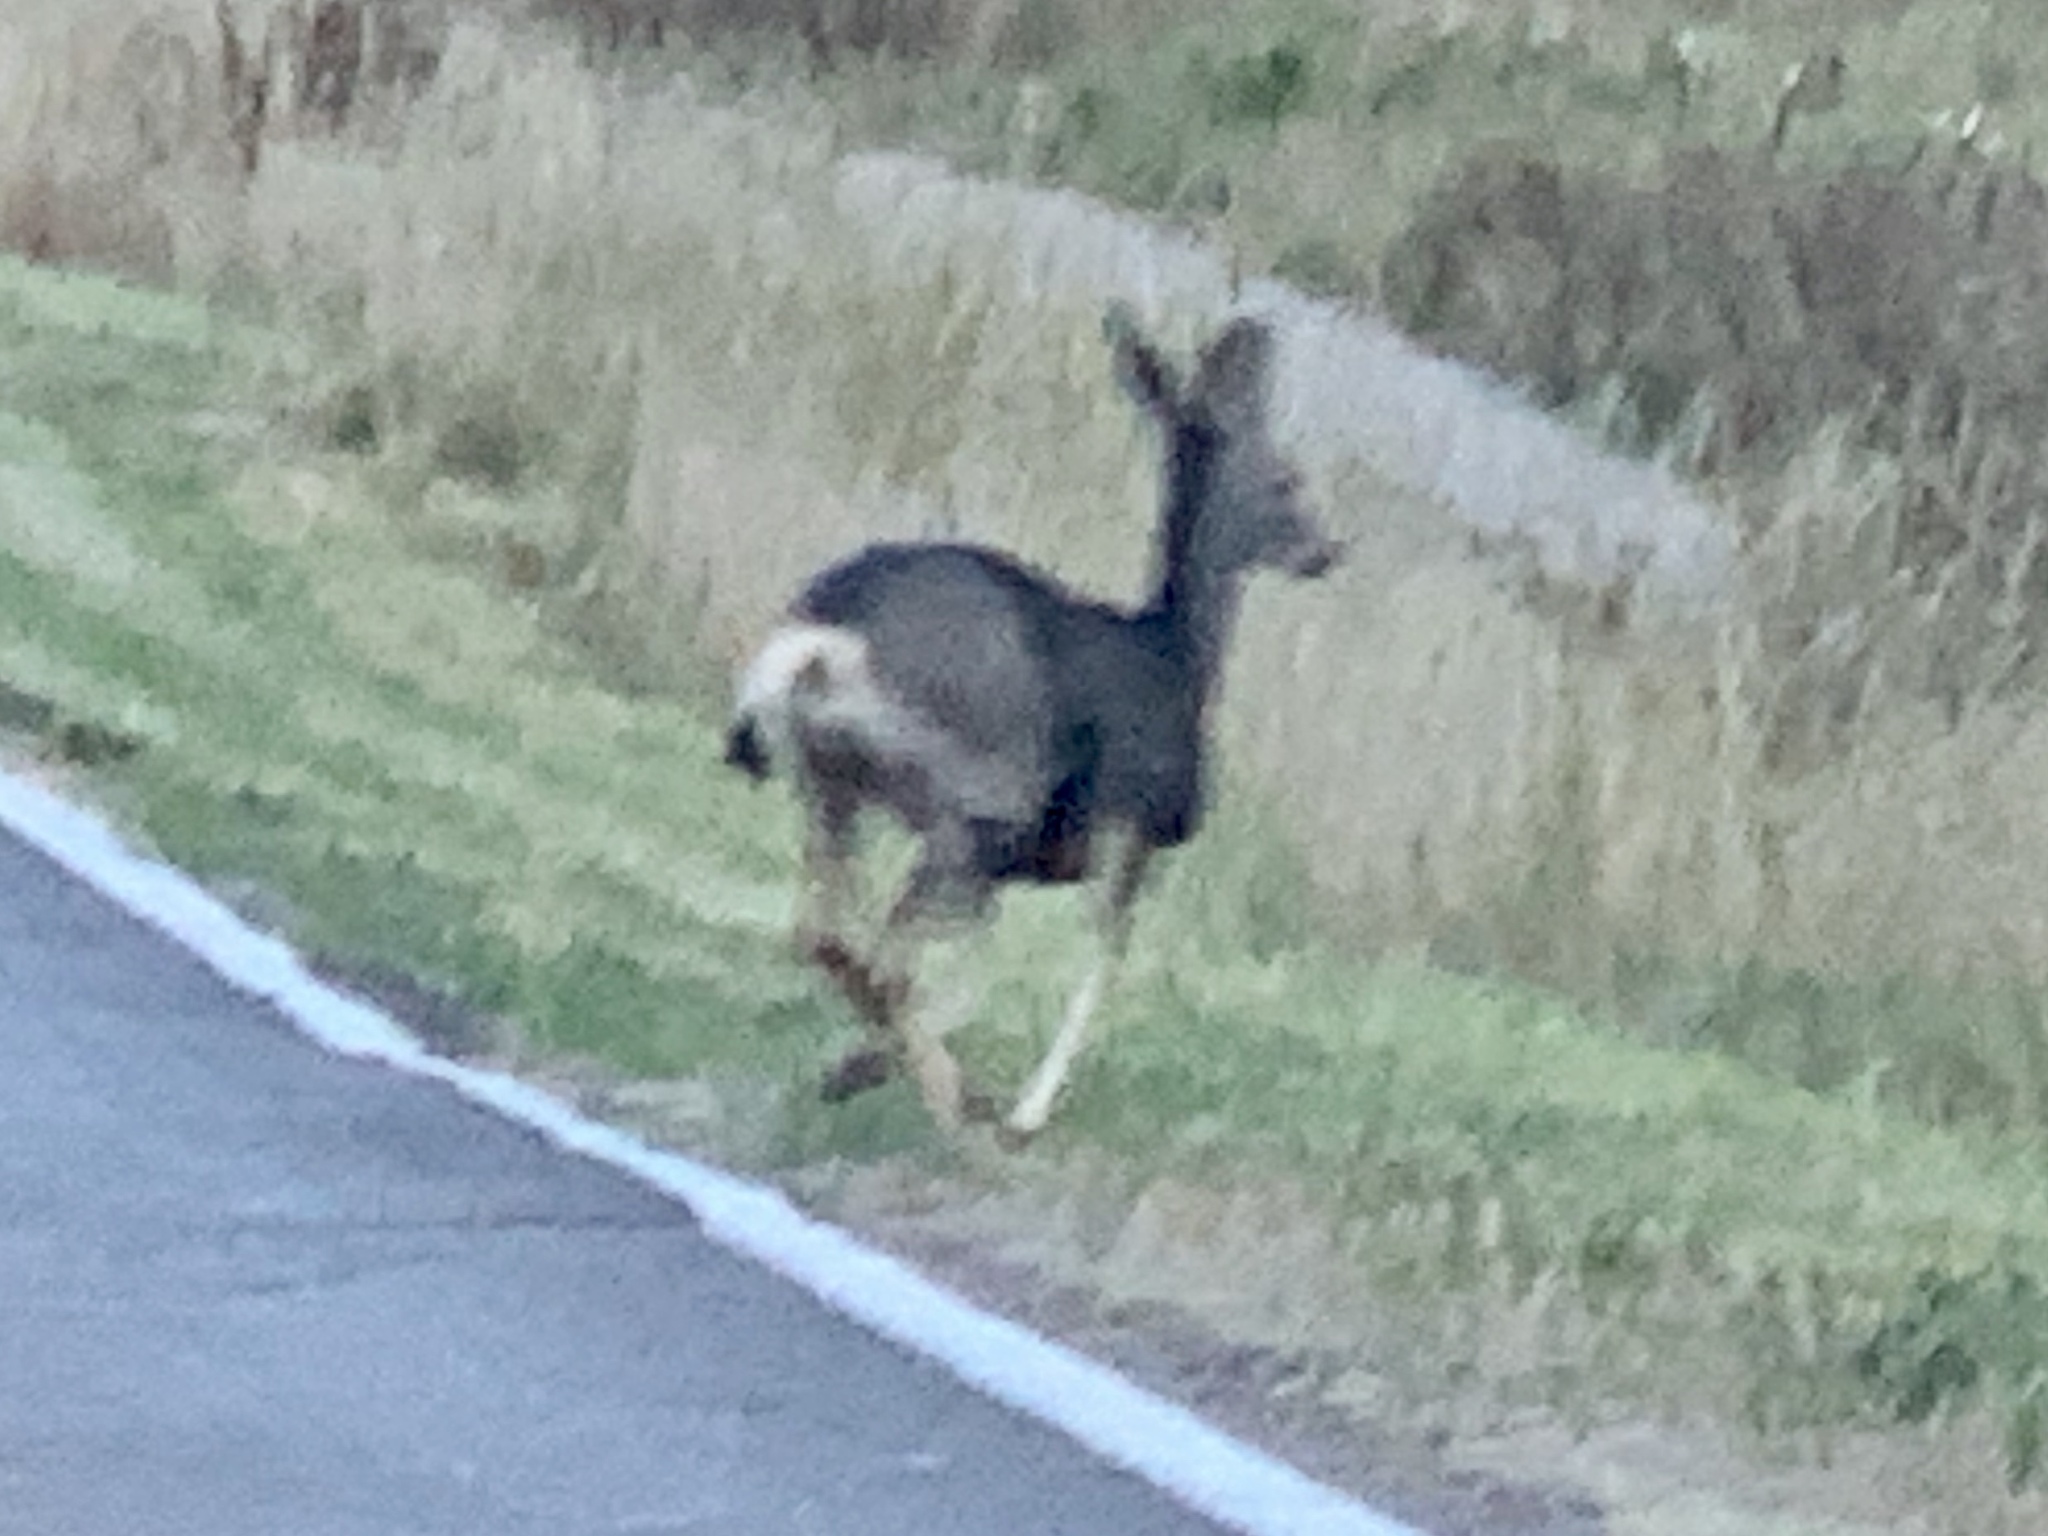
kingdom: Animalia
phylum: Chordata
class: Mammalia
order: Artiodactyla
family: Cervidae
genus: Odocoileus
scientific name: Odocoileus hemionus
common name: Mule deer
